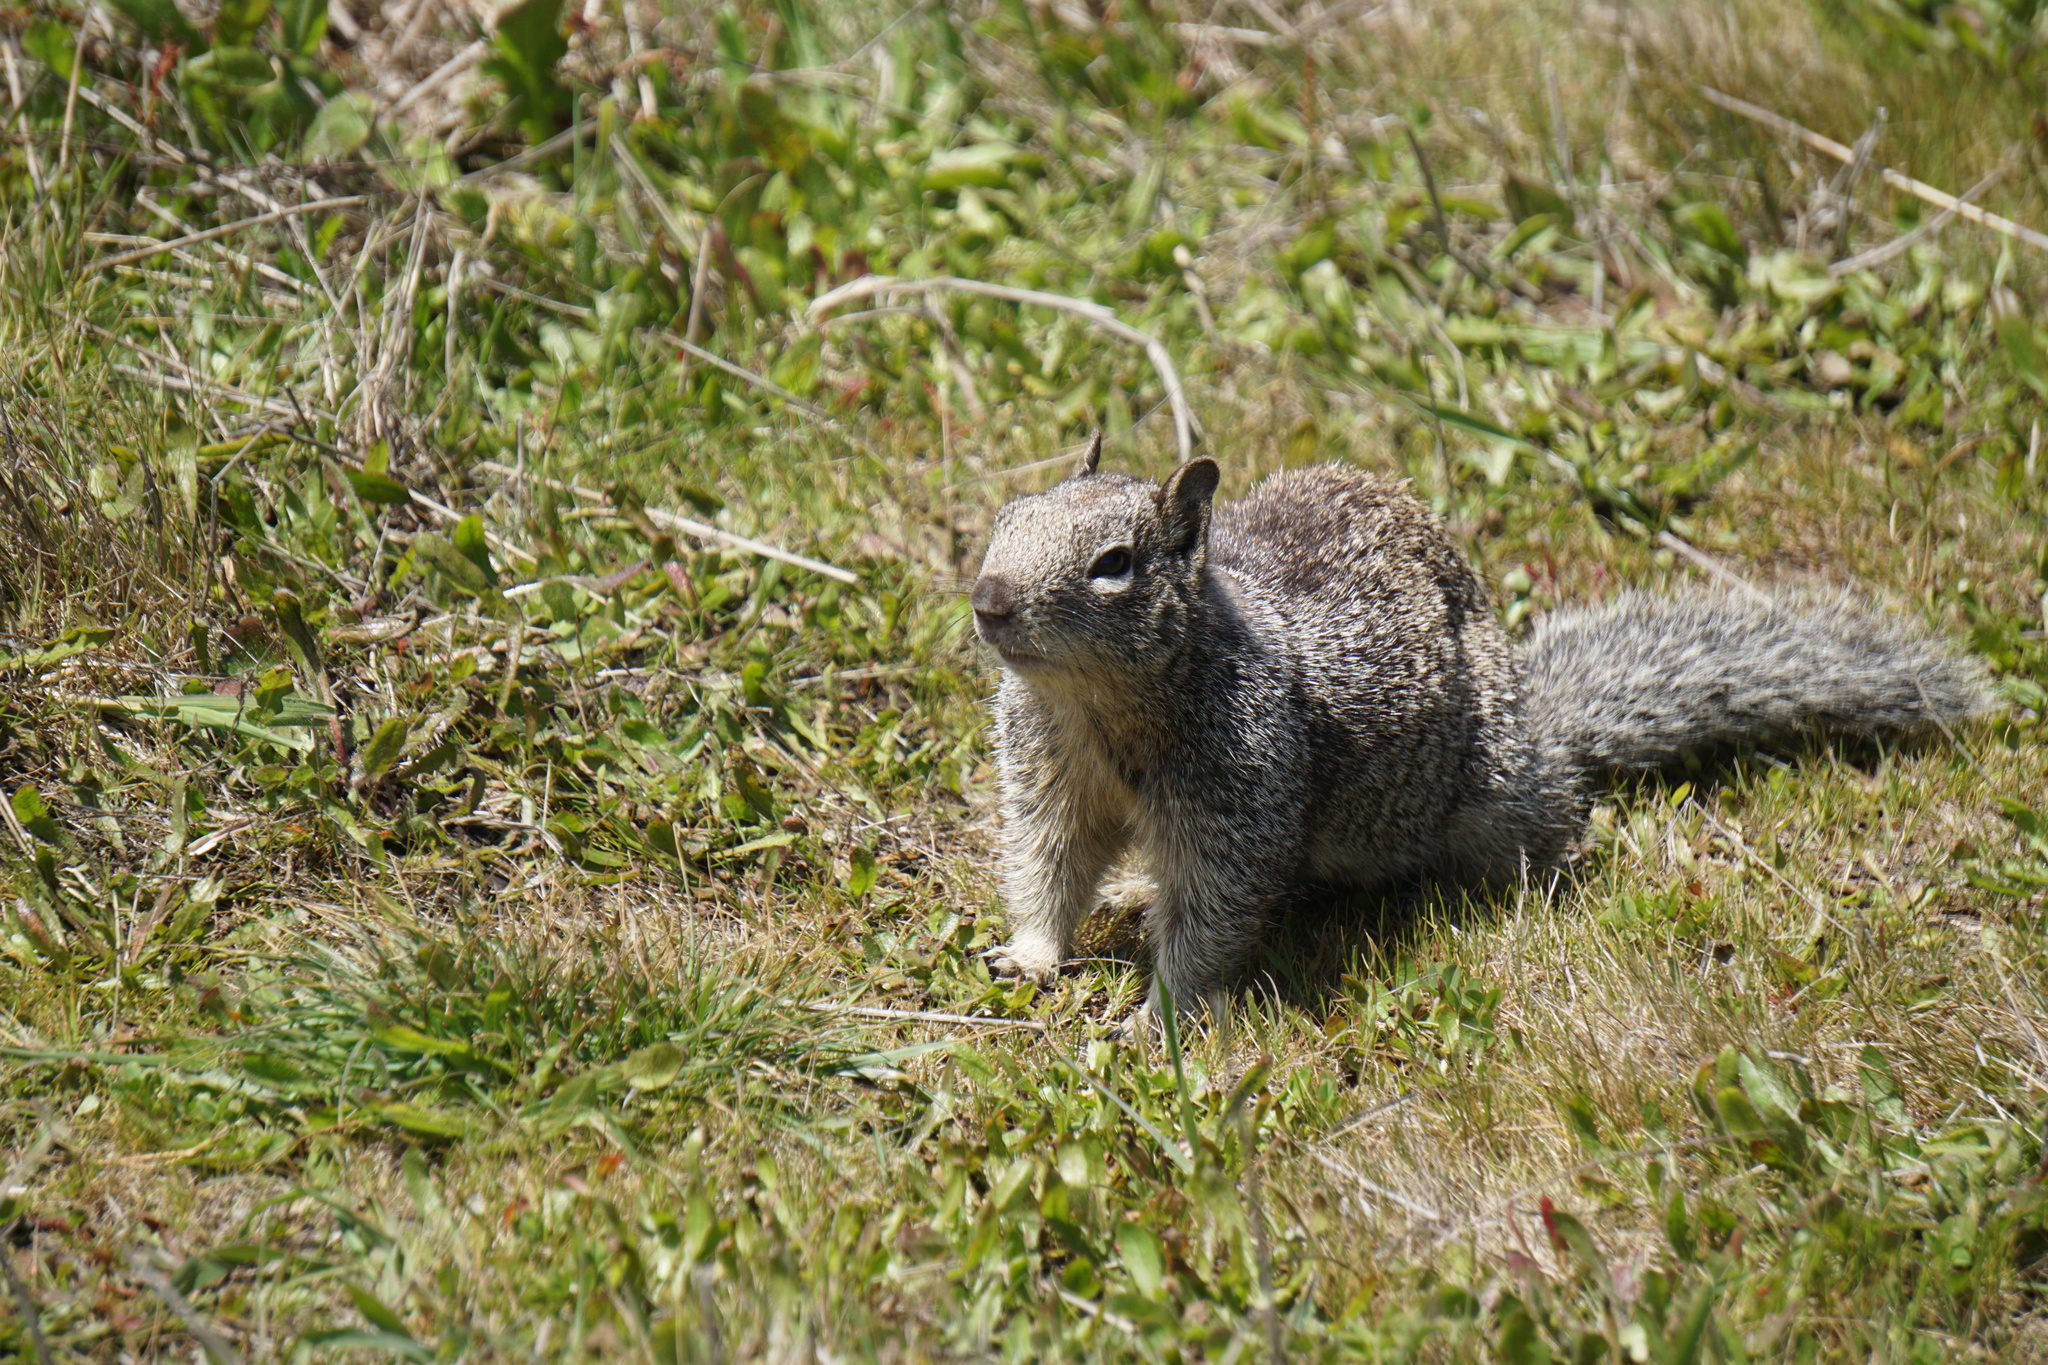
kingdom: Animalia
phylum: Chordata
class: Mammalia
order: Rodentia
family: Sciuridae
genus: Otospermophilus
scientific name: Otospermophilus beecheyi
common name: California ground squirrel
